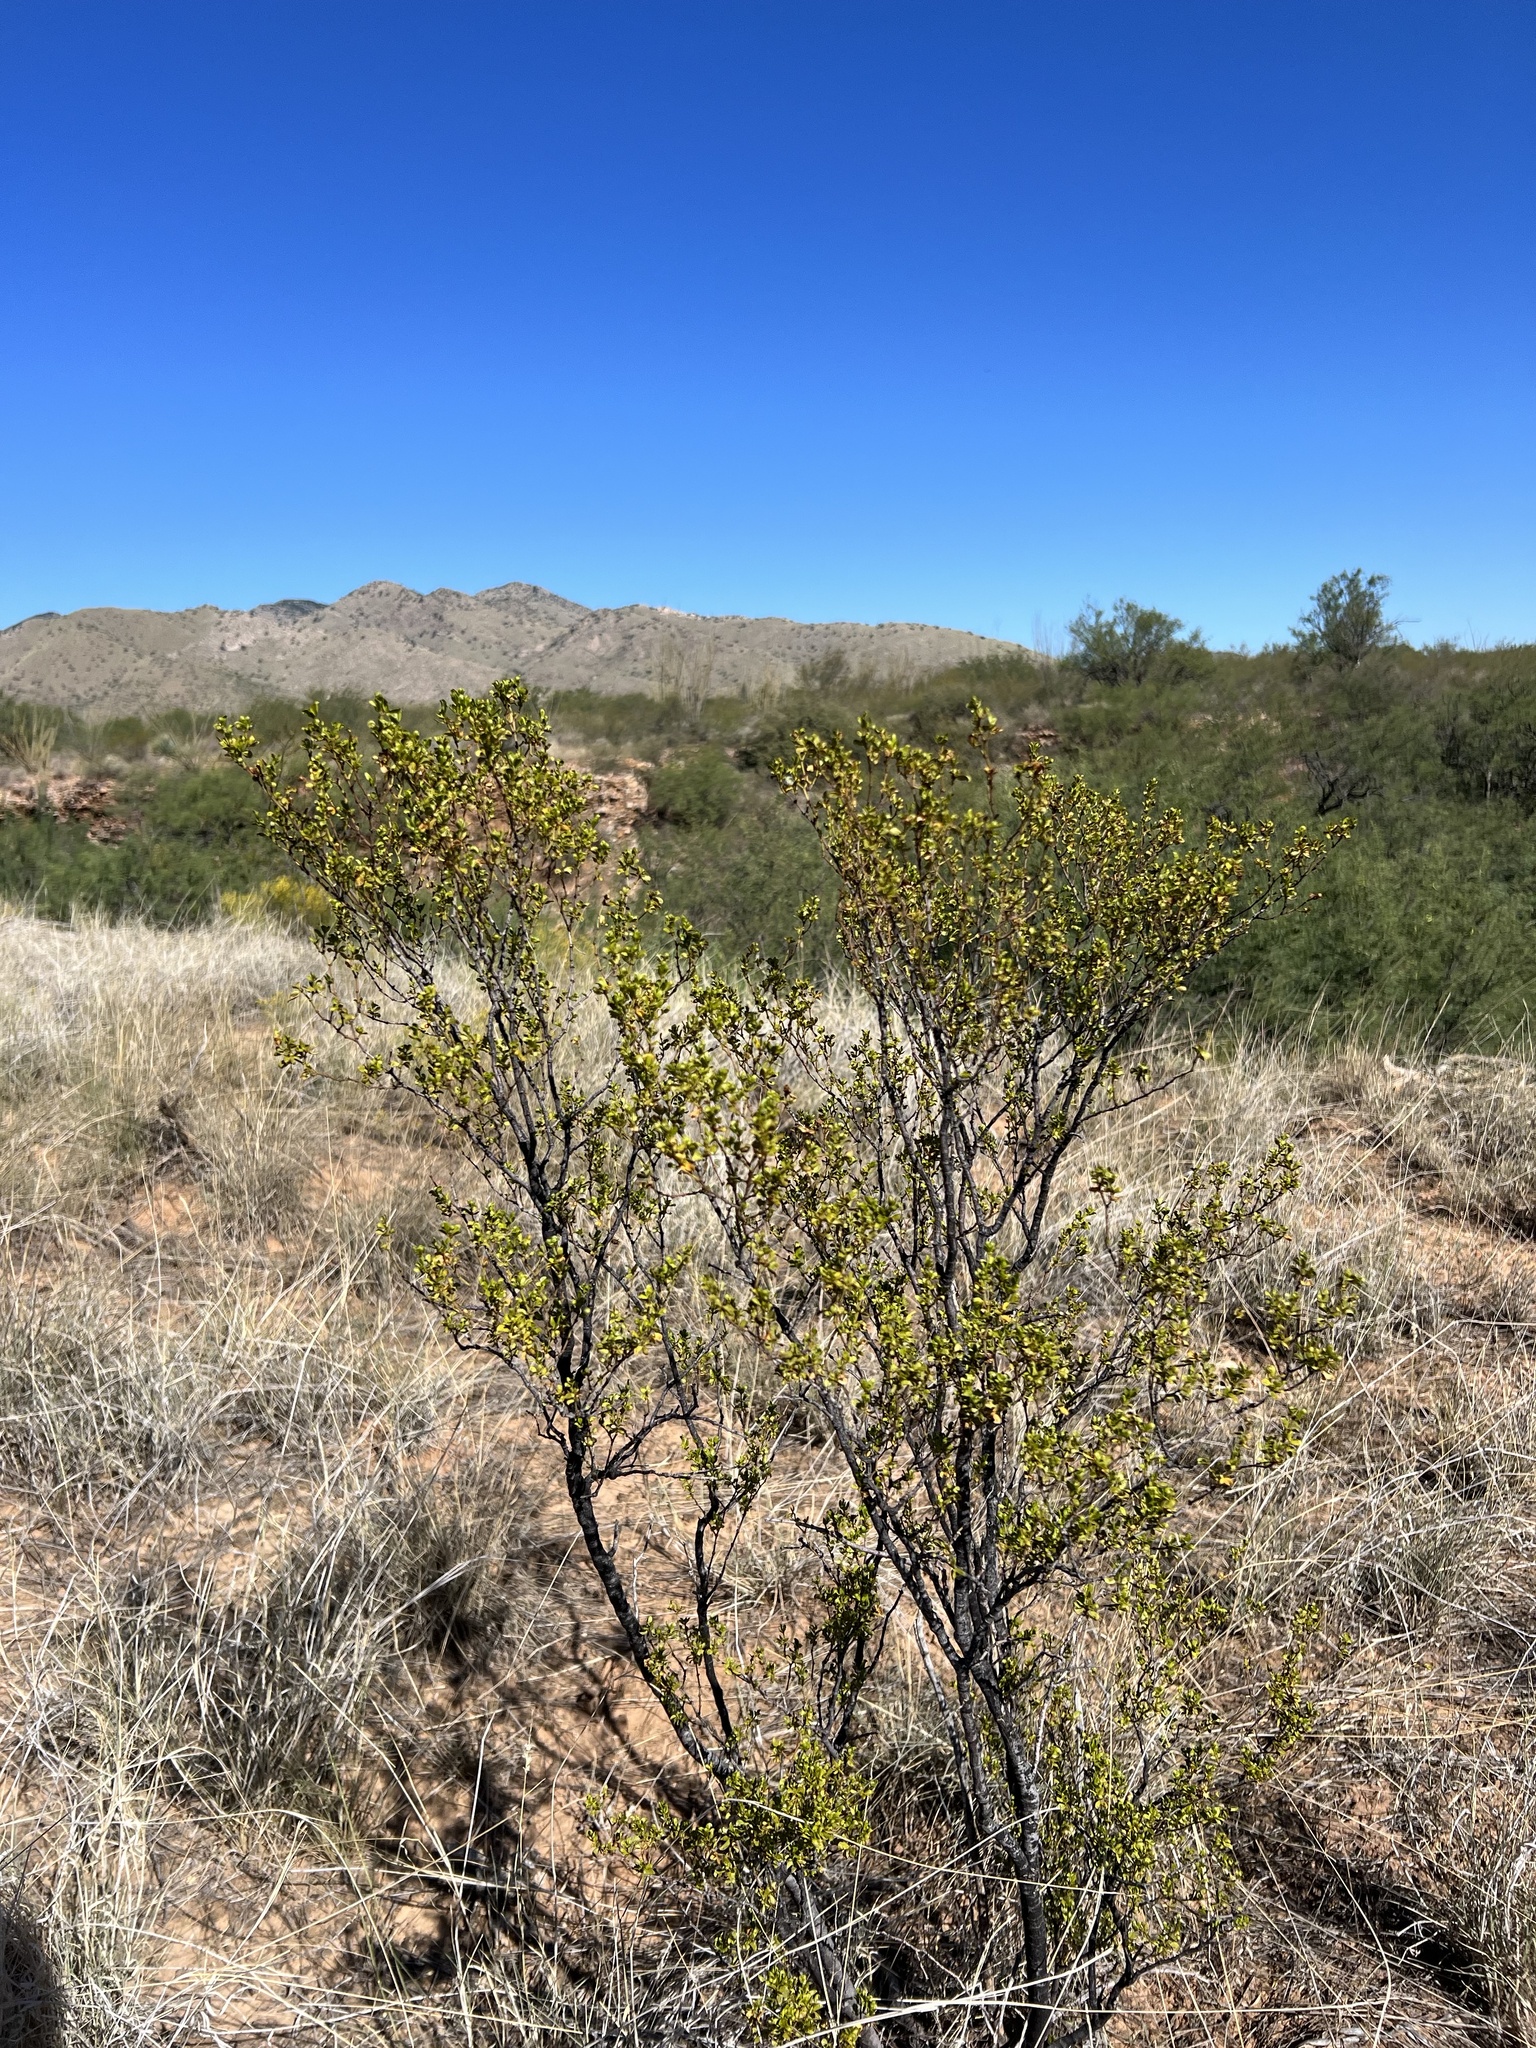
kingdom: Plantae
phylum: Tracheophyta
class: Magnoliopsida
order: Zygophyllales
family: Zygophyllaceae
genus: Larrea
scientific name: Larrea tridentata
